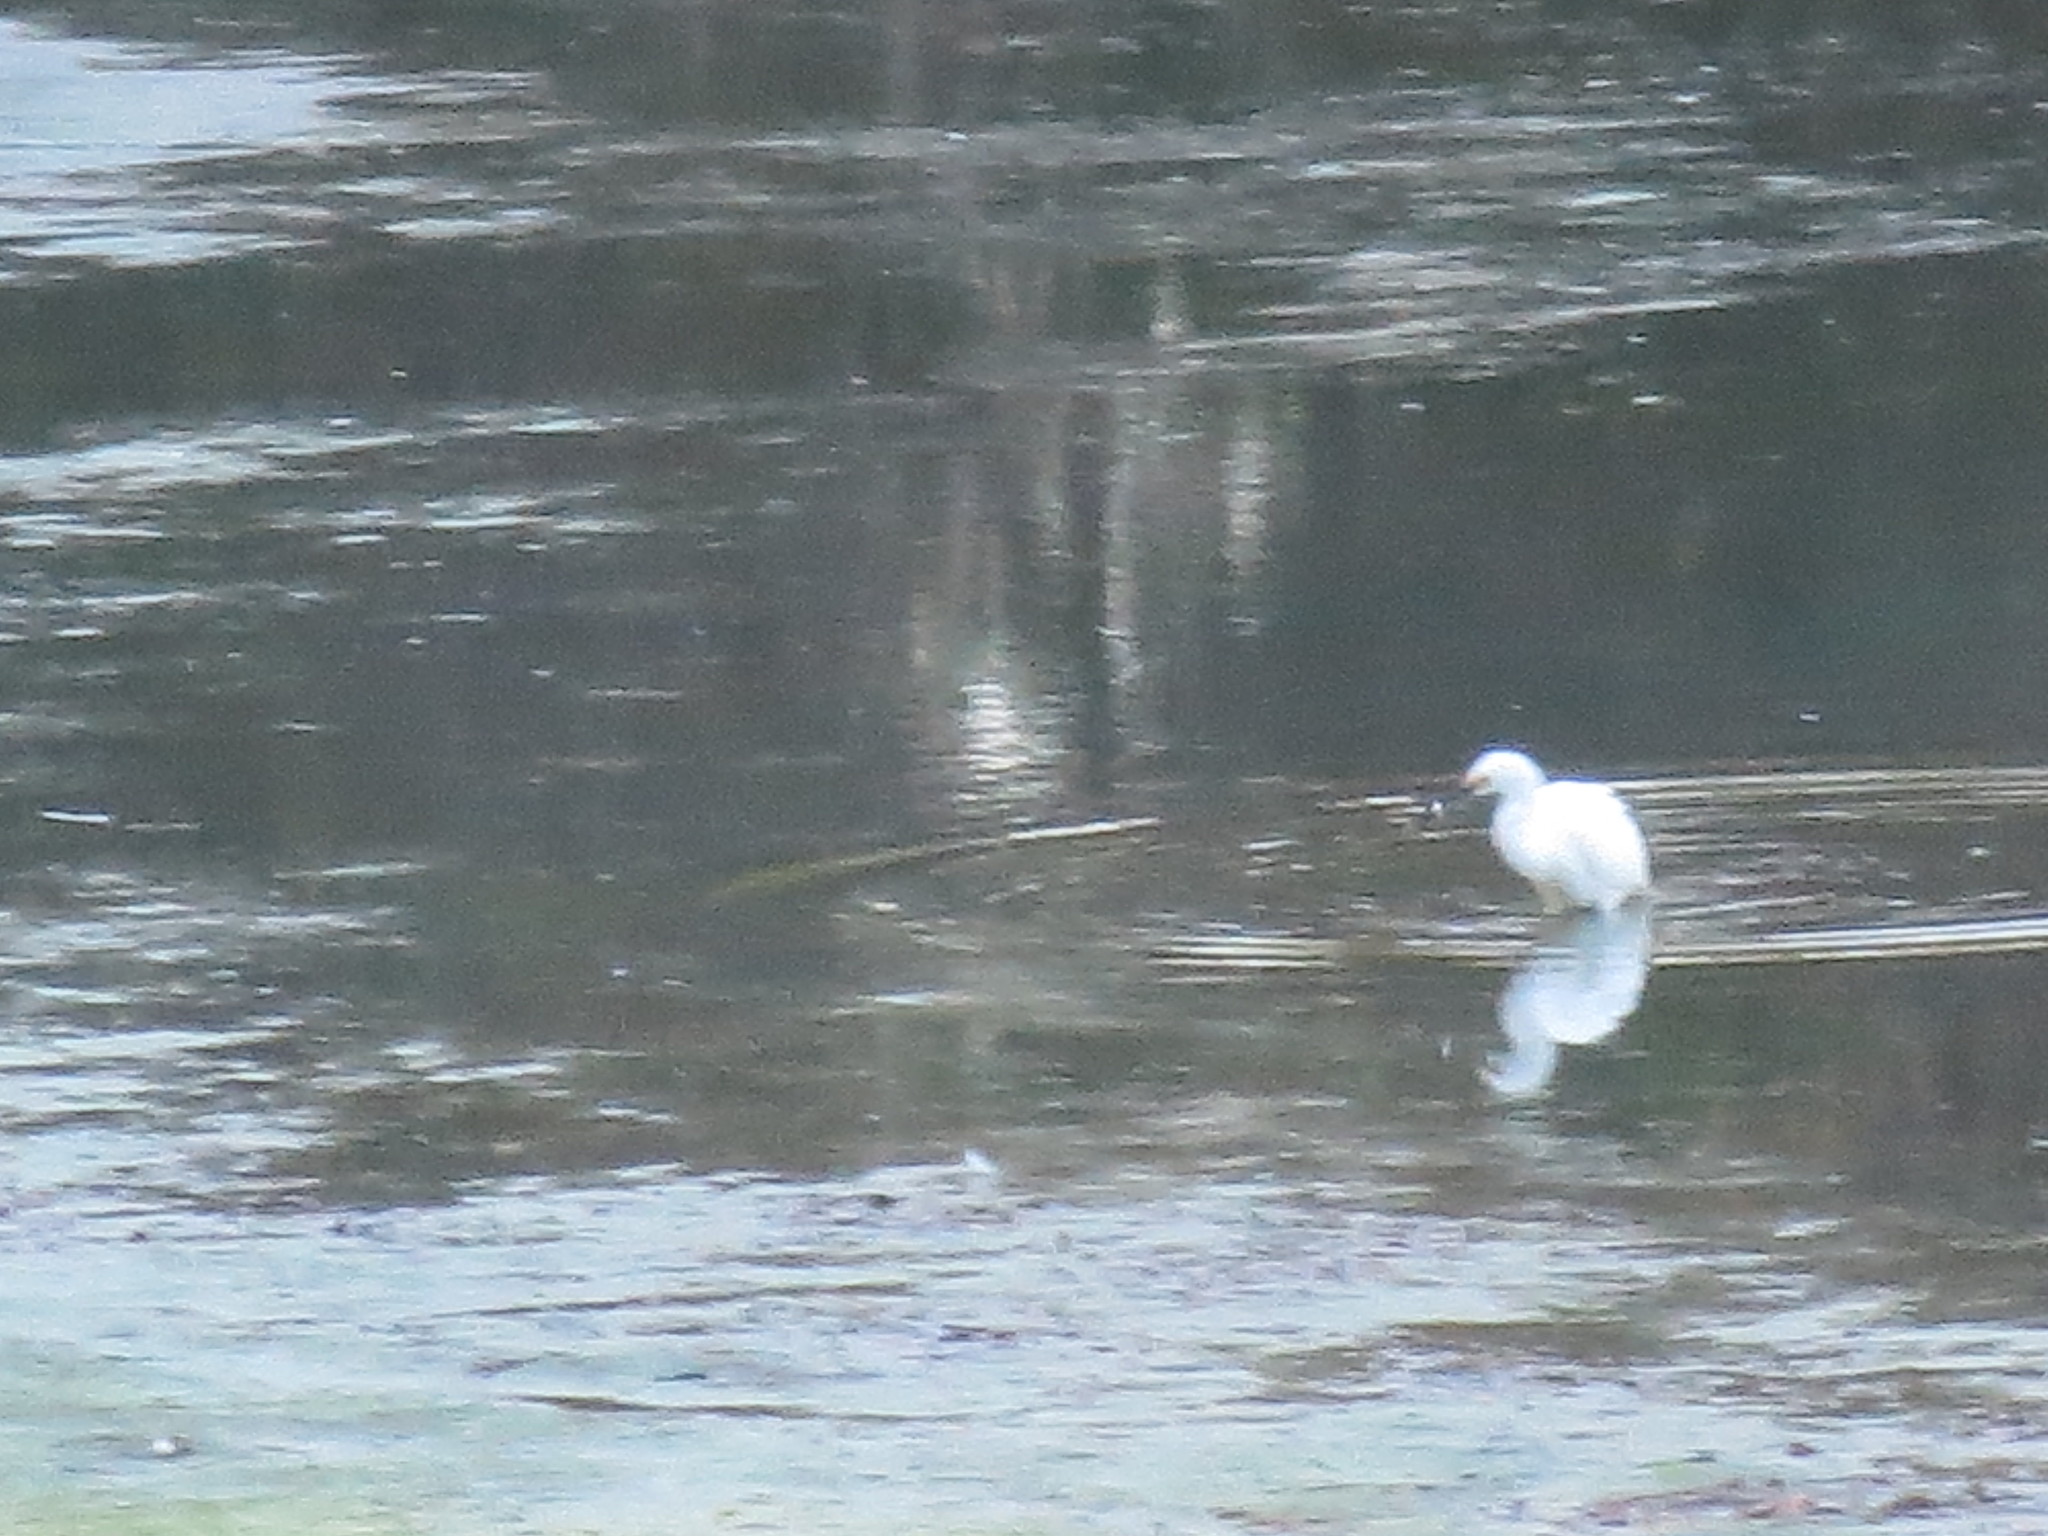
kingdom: Animalia
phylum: Chordata
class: Aves
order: Pelecaniformes
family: Ardeidae
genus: Egretta
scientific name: Egretta thula
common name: Snowy egret
